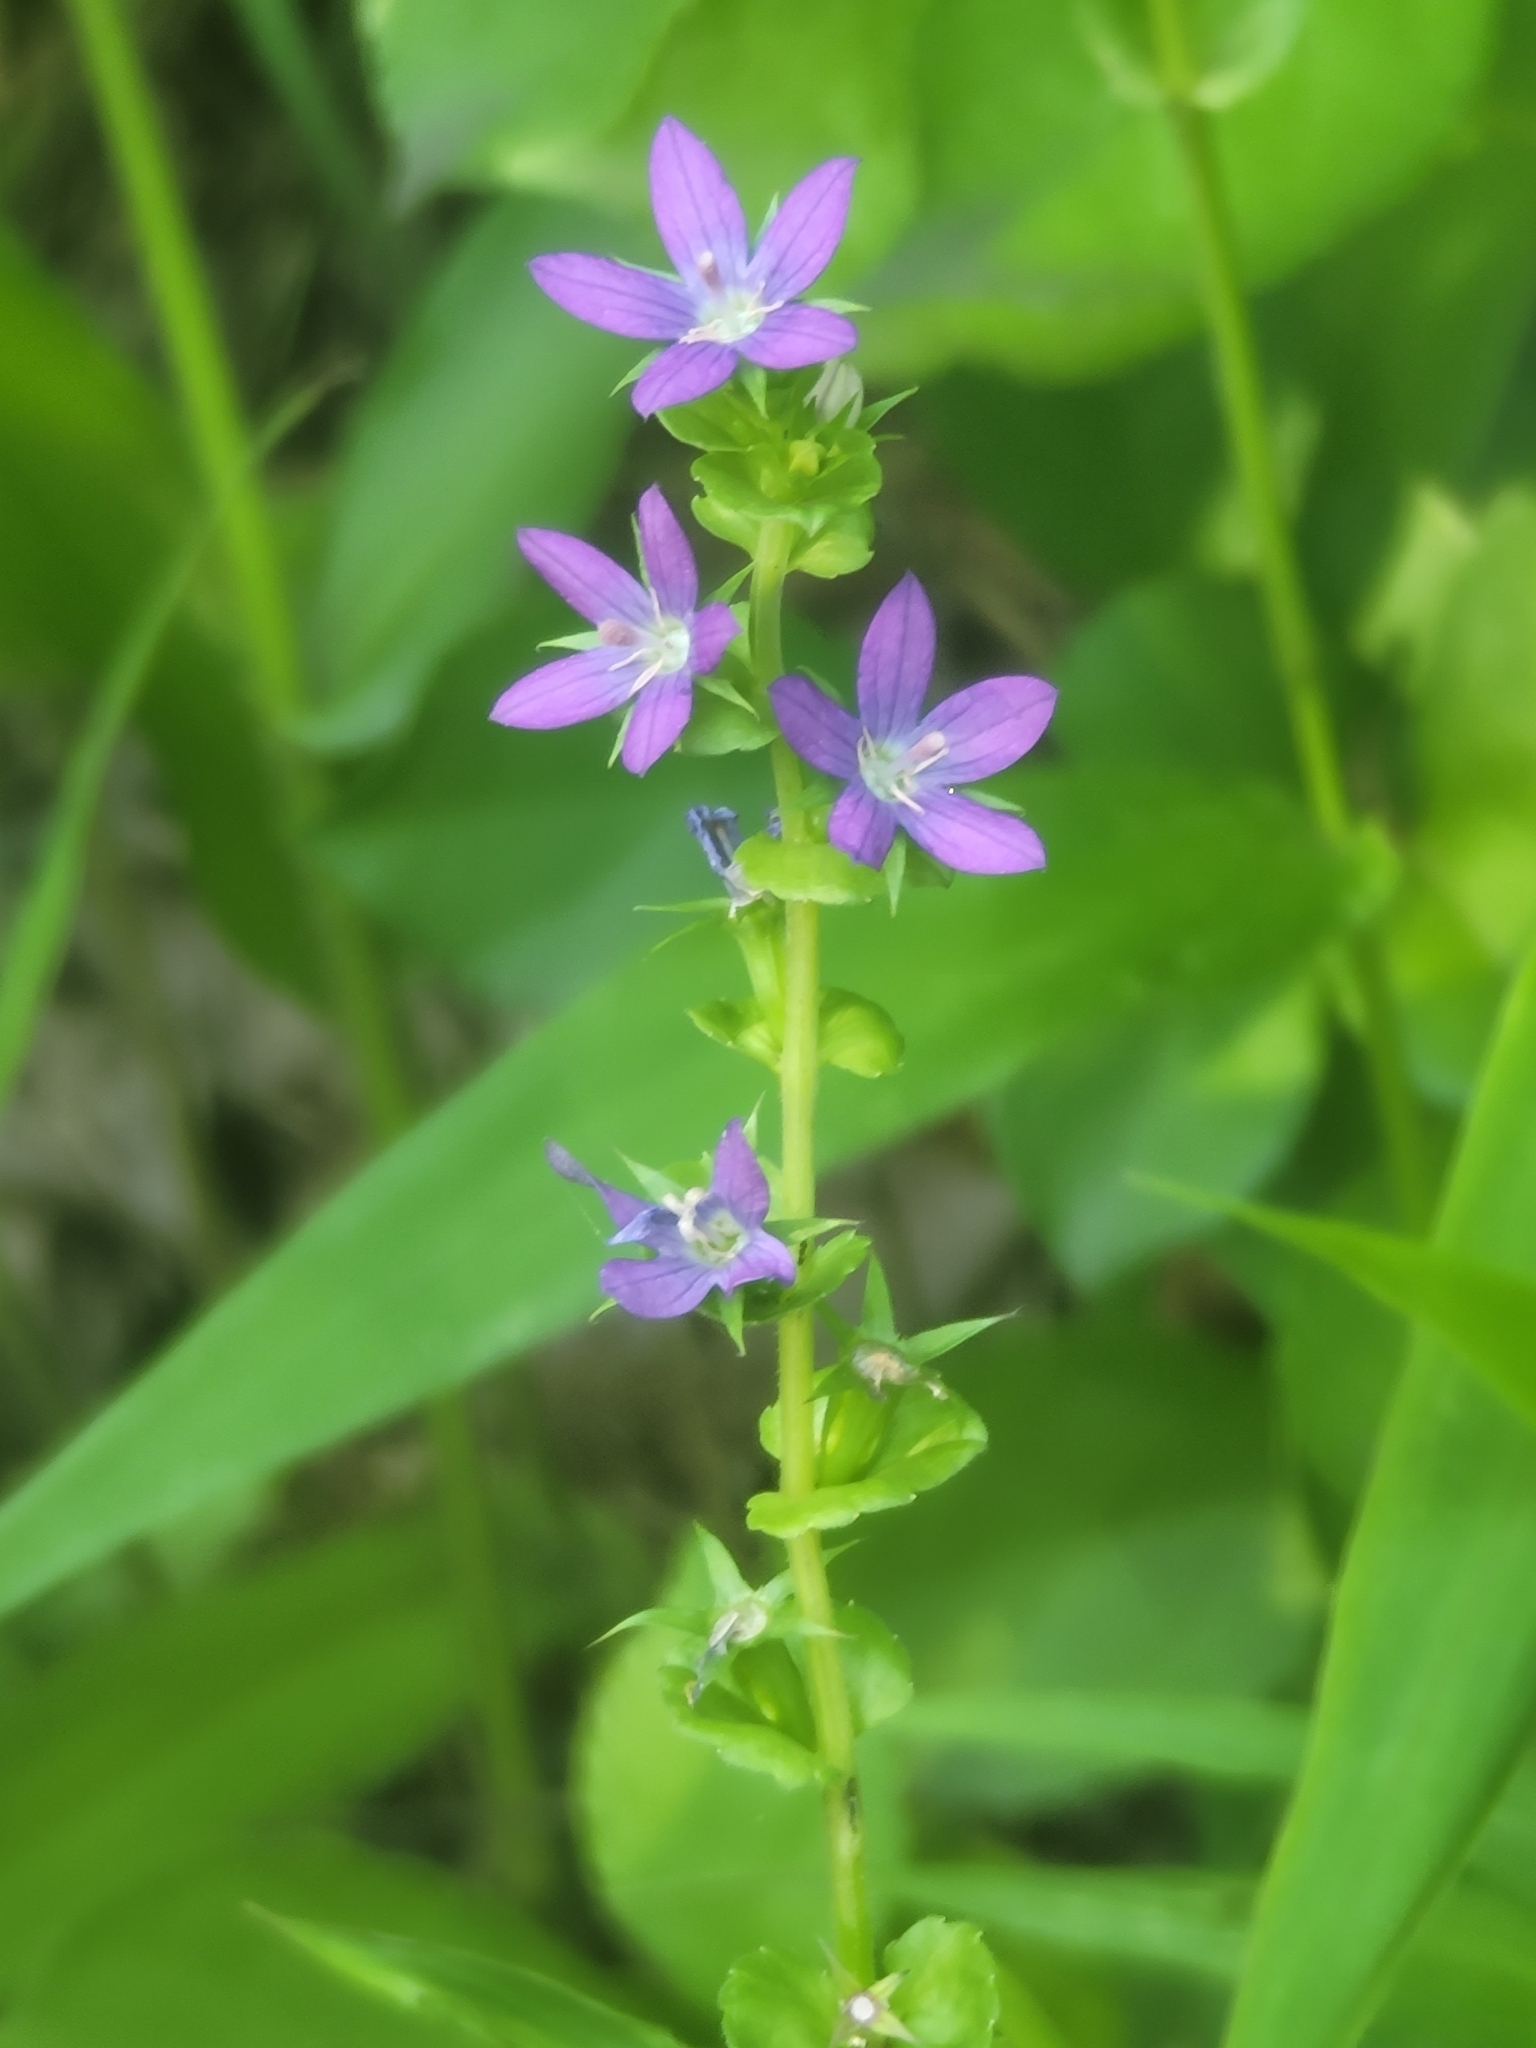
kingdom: Plantae
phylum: Tracheophyta
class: Magnoliopsida
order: Asterales
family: Campanulaceae
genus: Triodanis
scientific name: Triodanis perfoliata
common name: Clasping venus' looking-glass
